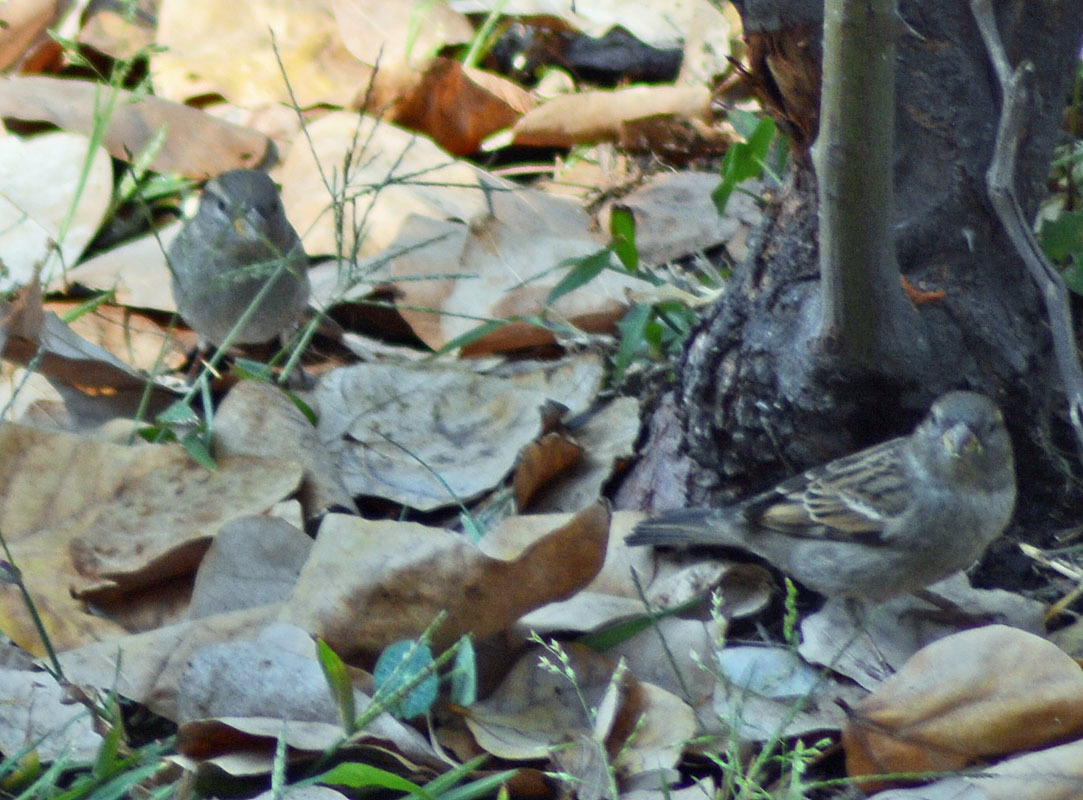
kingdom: Animalia
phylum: Chordata
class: Aves
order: Passeriformes
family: Passeridae
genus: Passer
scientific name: Passer domesticus
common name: House sparrow
